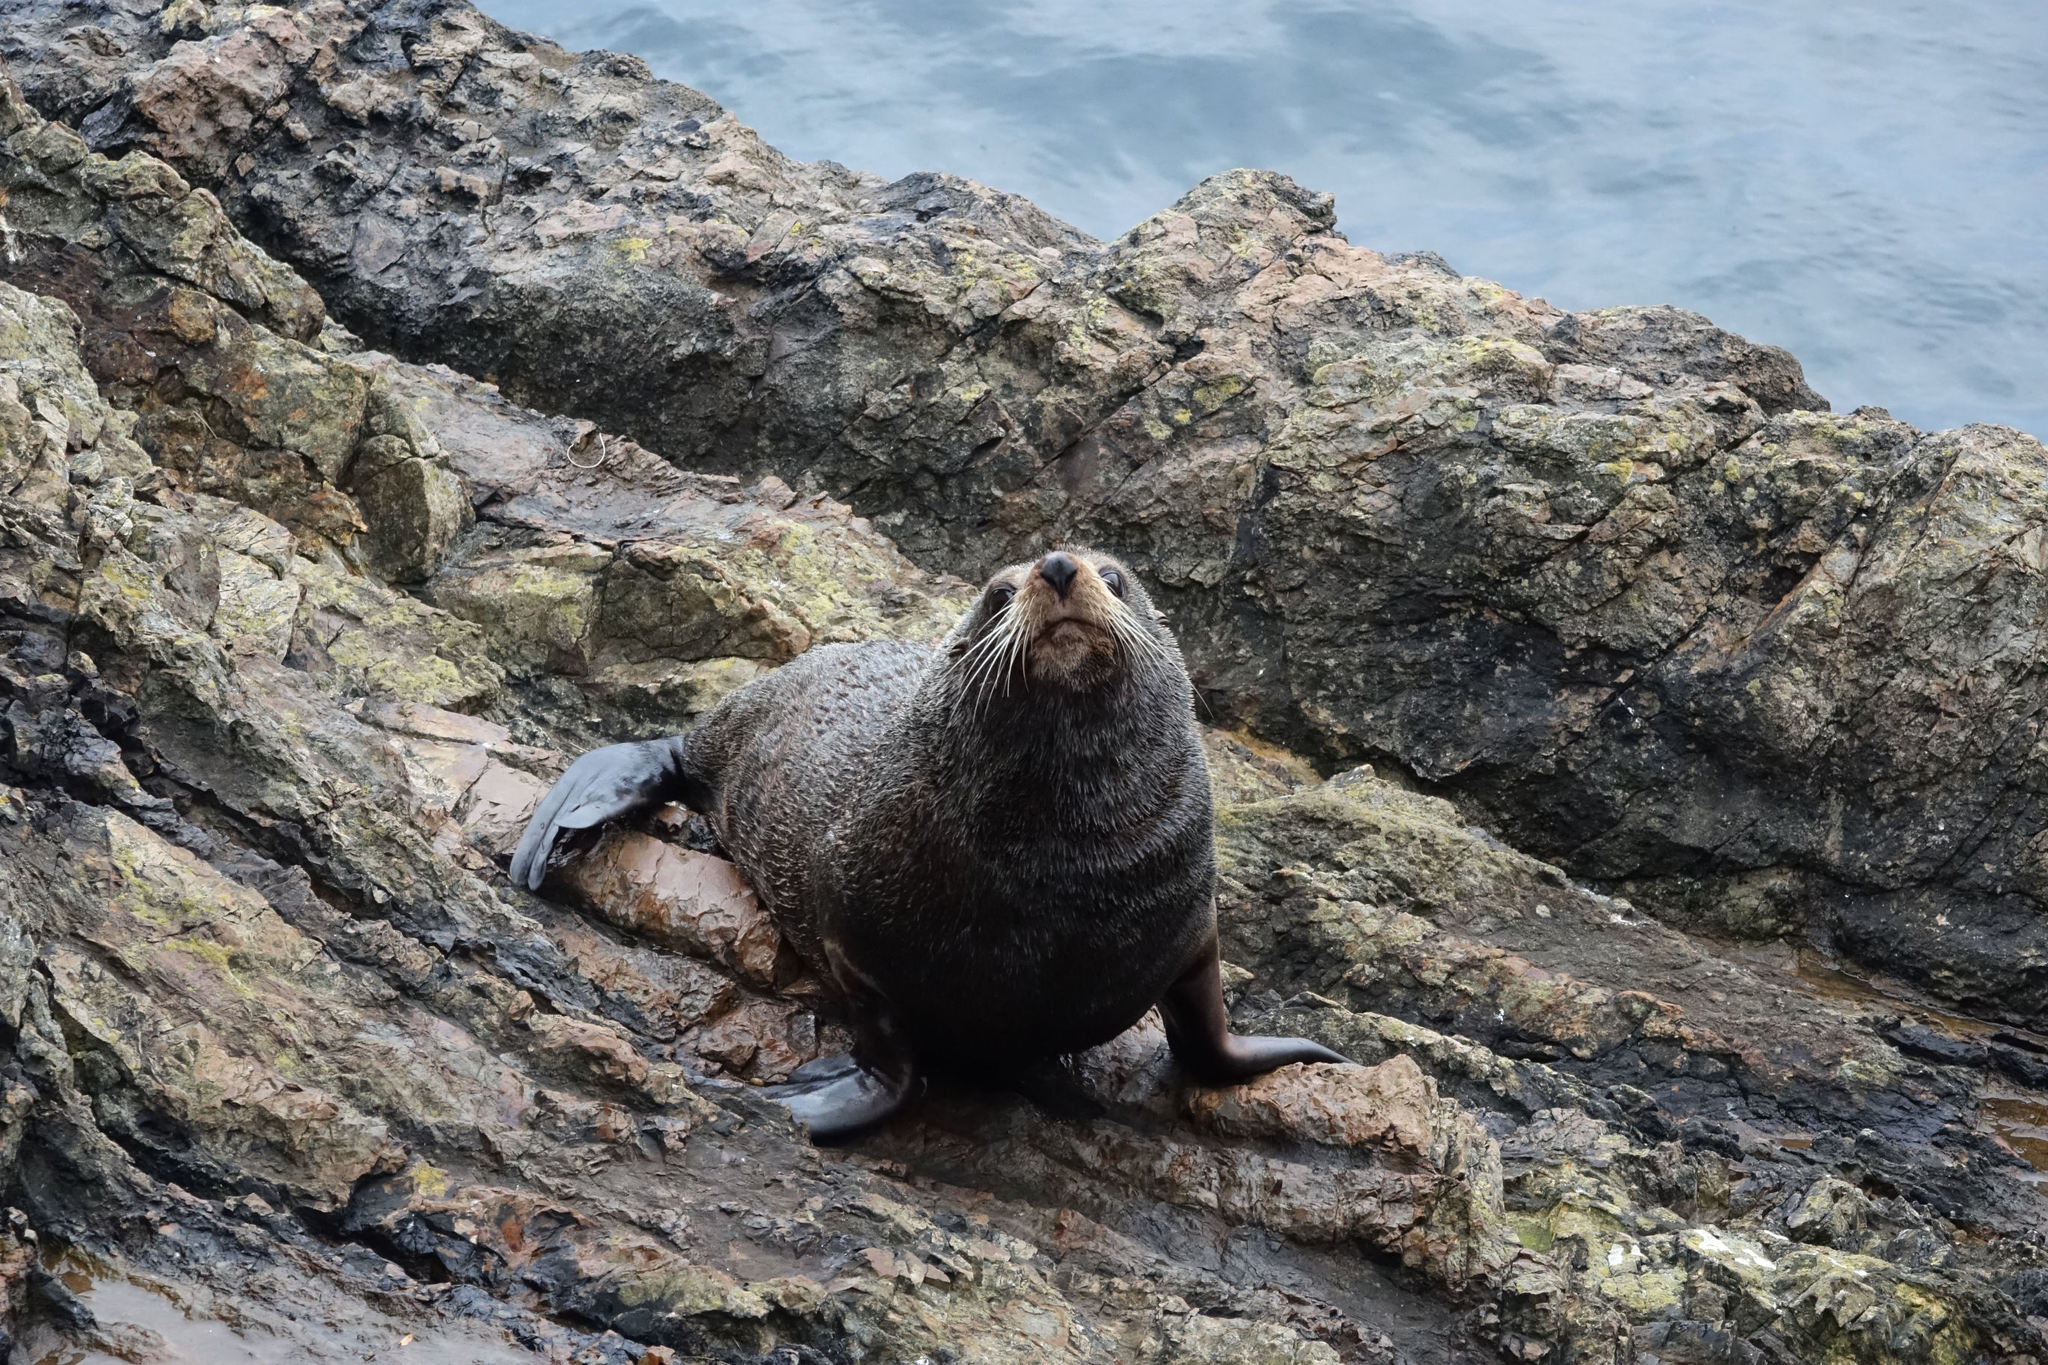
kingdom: Animalia
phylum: Chordata
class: Mammalia
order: Carnivora
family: Otariidae
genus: Arctocephalus
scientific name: Arctocephalus forsteri
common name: New zealand fur seal
